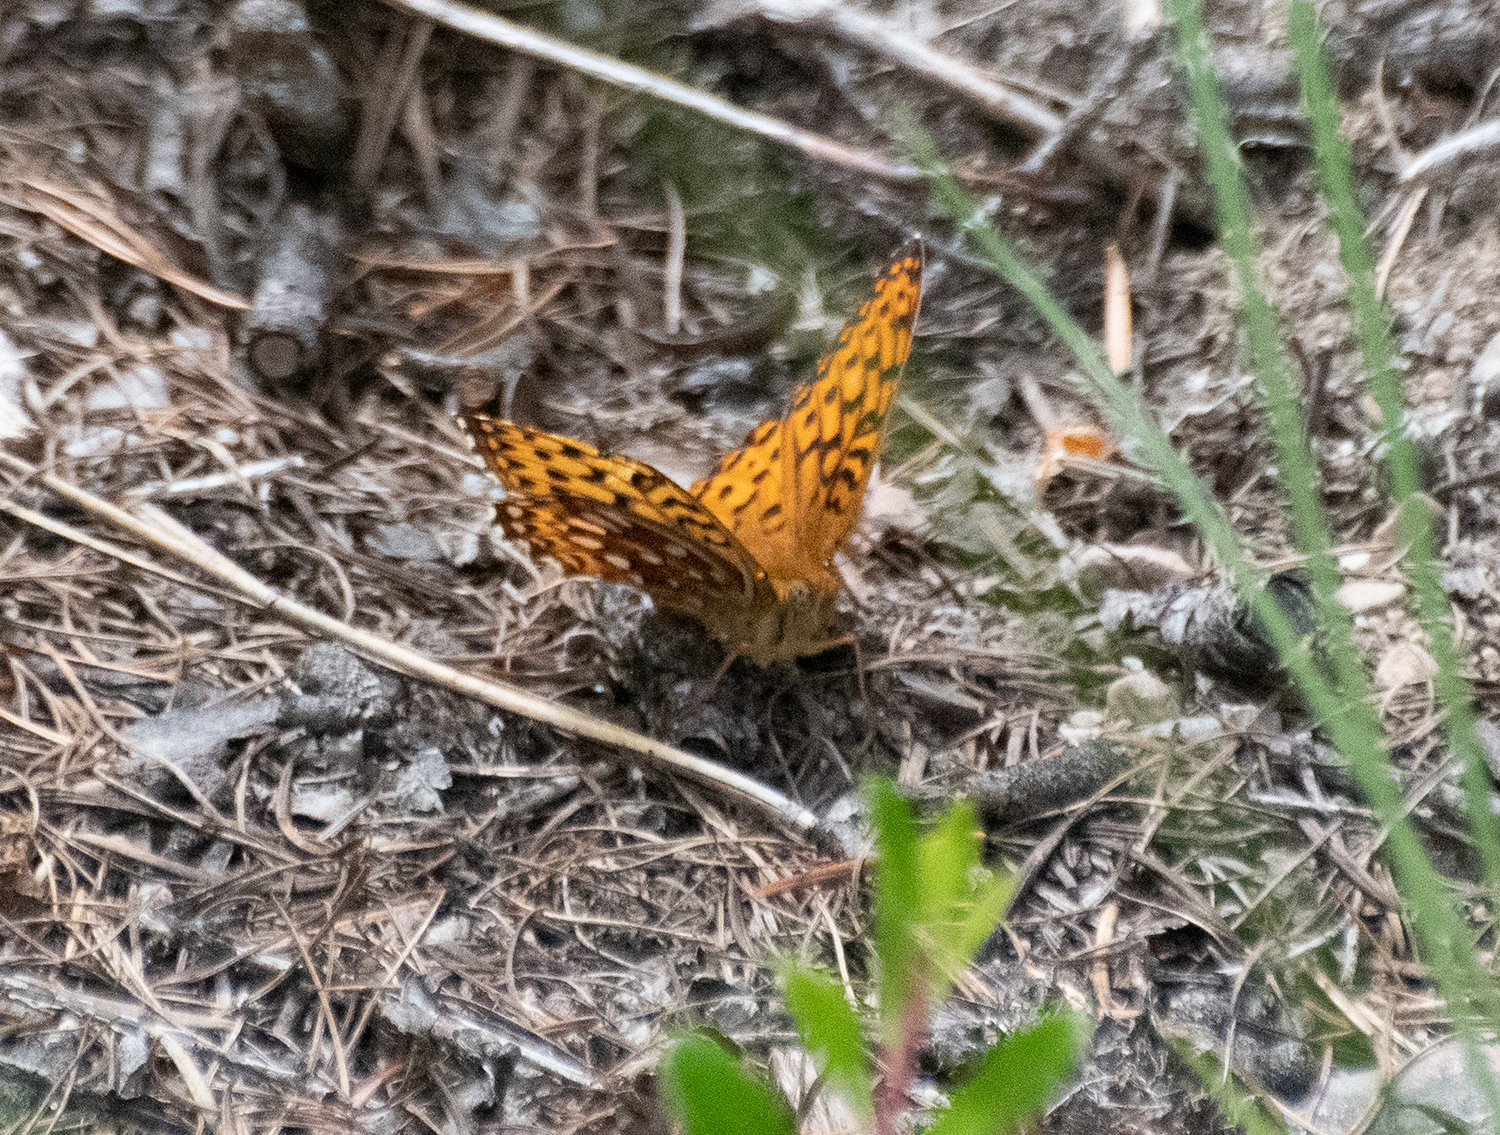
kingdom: Animalia
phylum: Arthropoda
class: Insecta
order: Lepidoptera
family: Nymphalidae
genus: Speyeria
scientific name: Speyeria atlantis
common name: Atlantis fritillary
